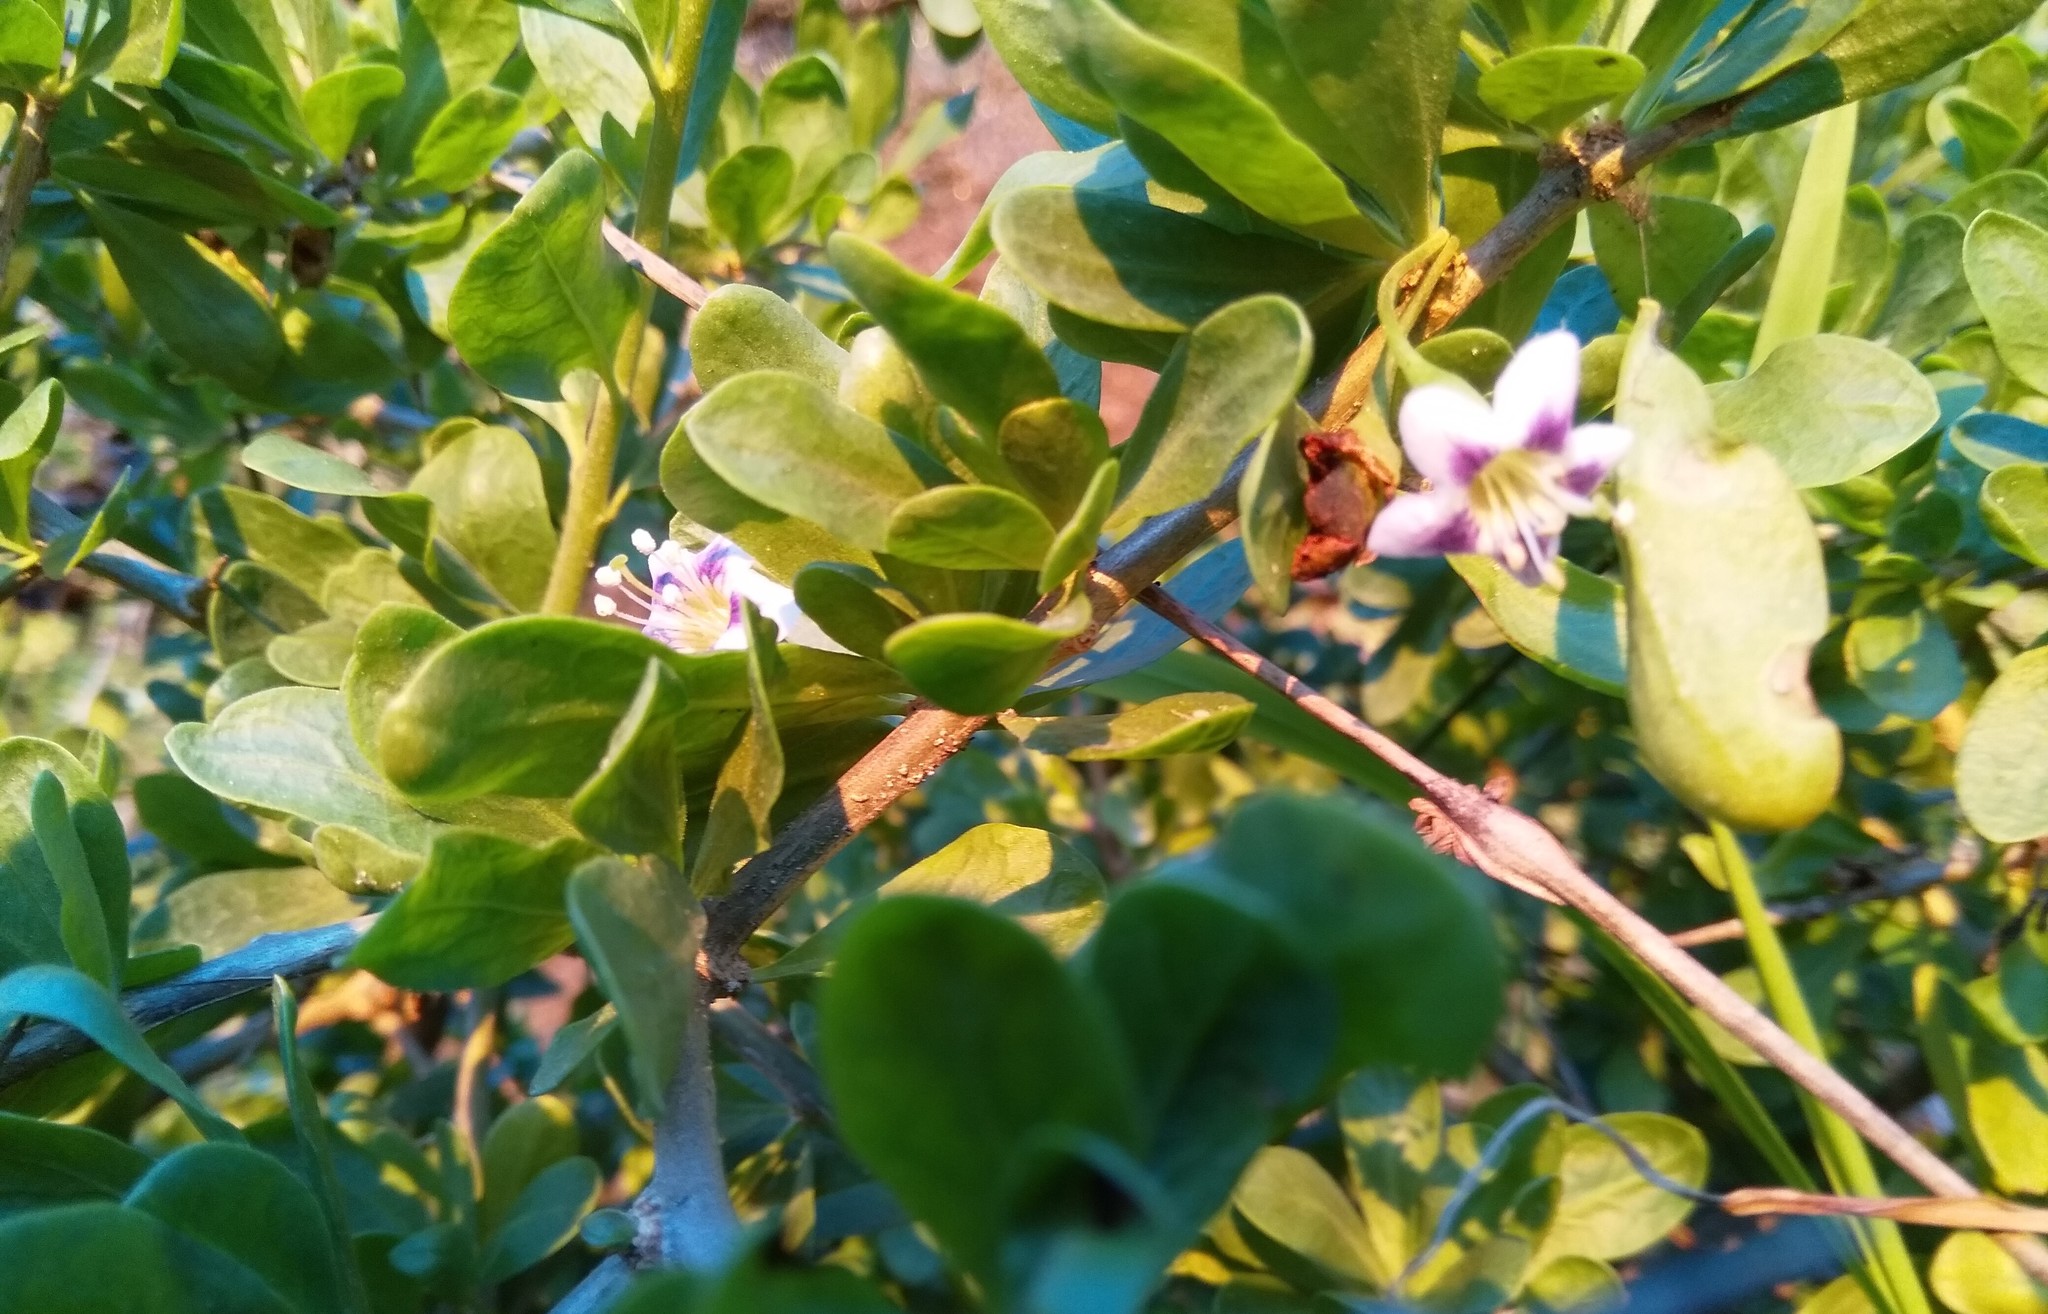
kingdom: Plantae
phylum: Tracheophyta
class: Magnoliopsida
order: Solanales
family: Solanaceae
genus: Lycium
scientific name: Lycium ferocissimum
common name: African boxthorn
